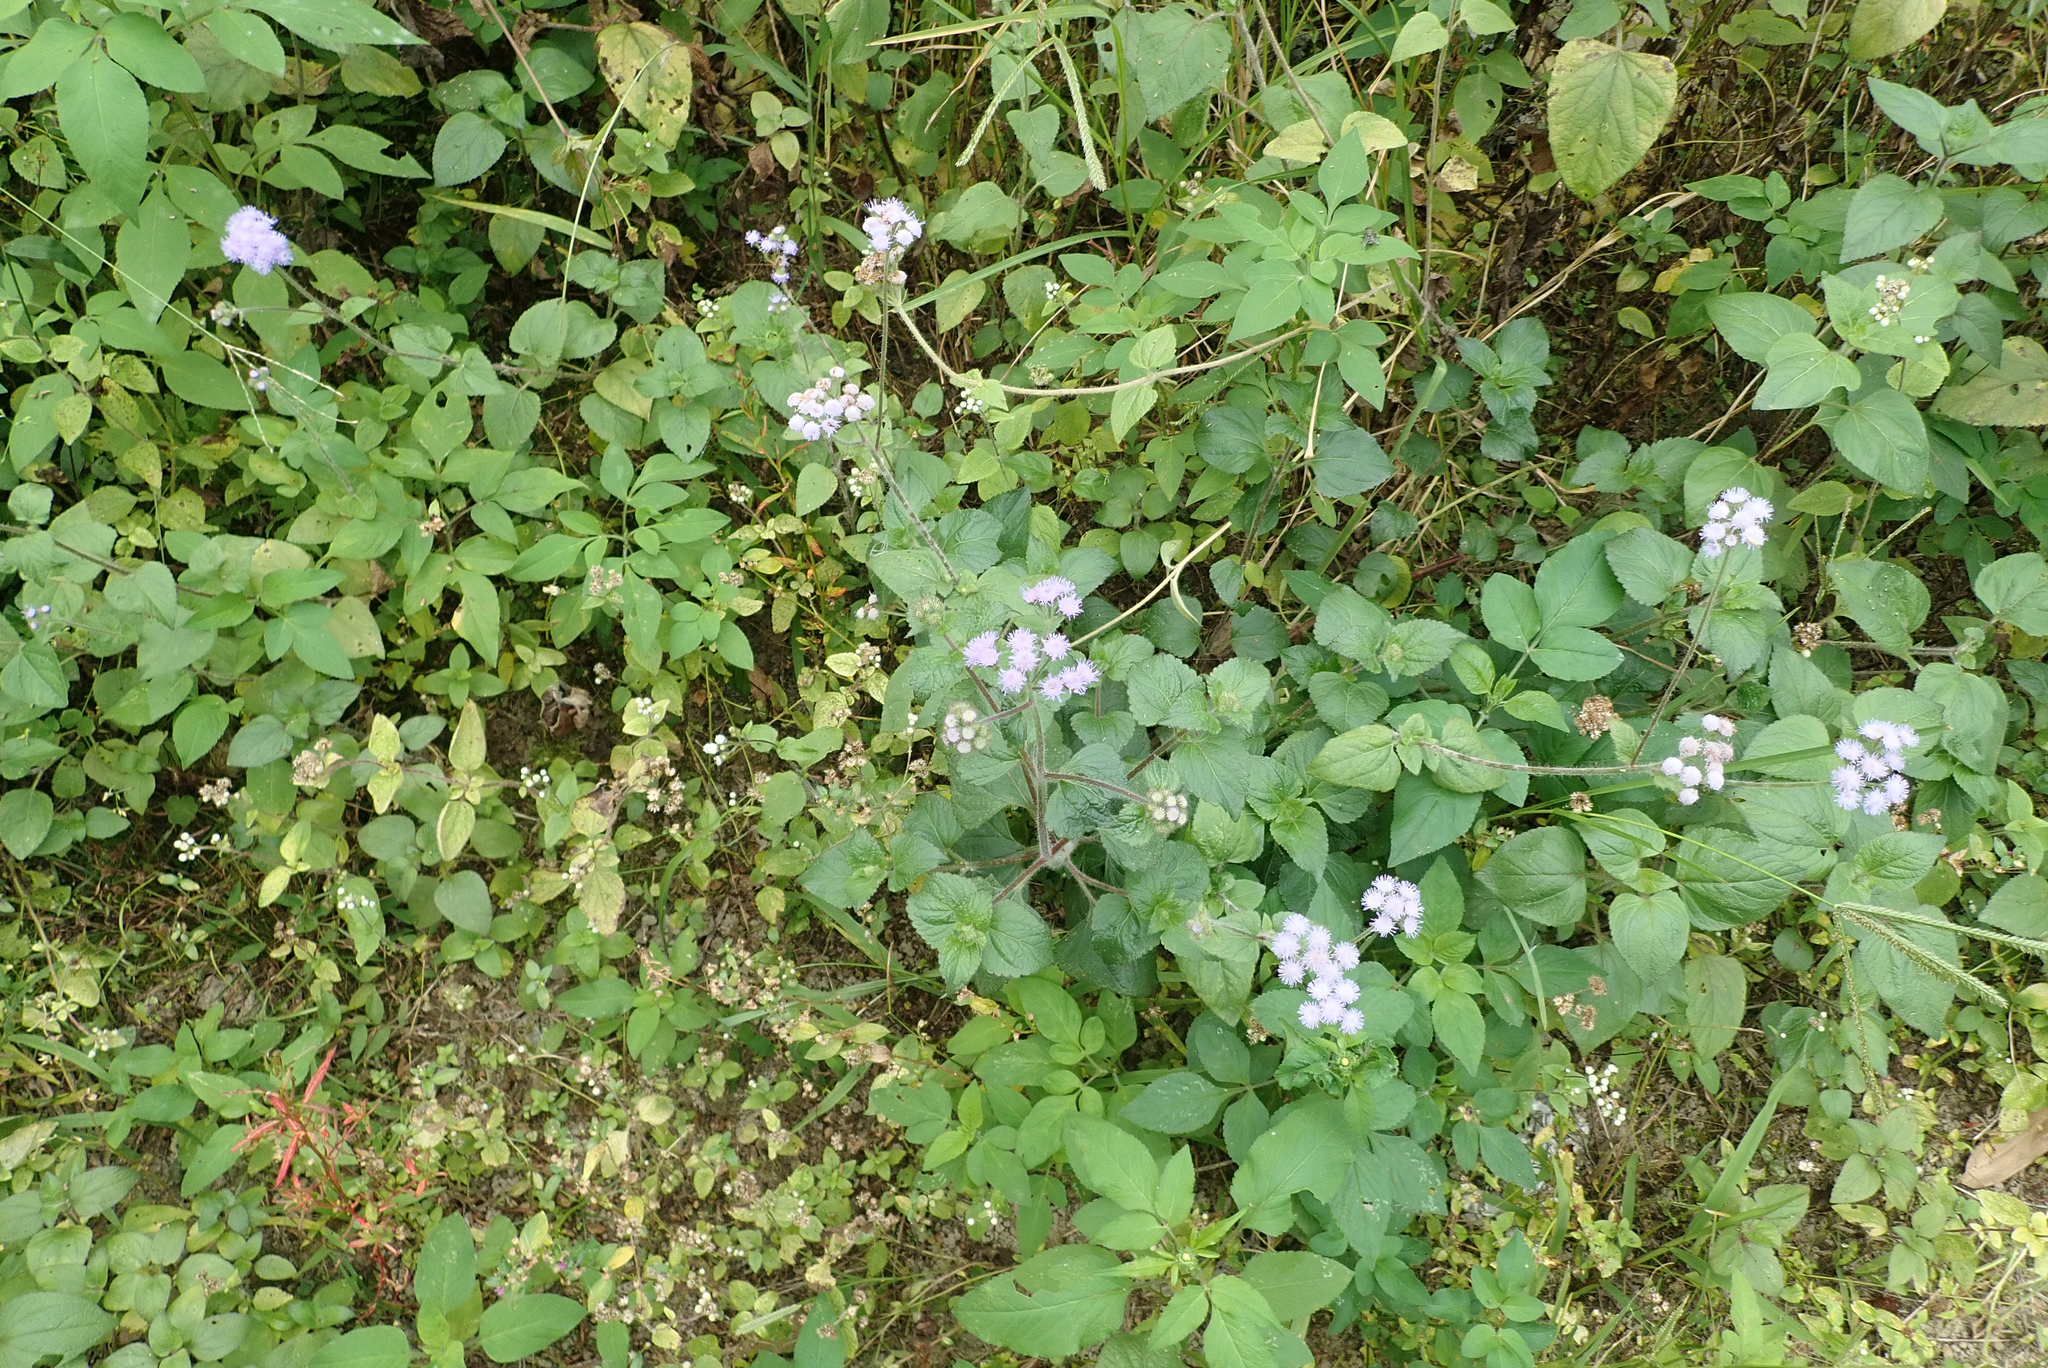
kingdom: Plantae
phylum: Tracheophyta
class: Magnoliopsida
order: Asterales
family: Asteraceae
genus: Ageratum
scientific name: Ageratum houstonianum
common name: Bluemink
